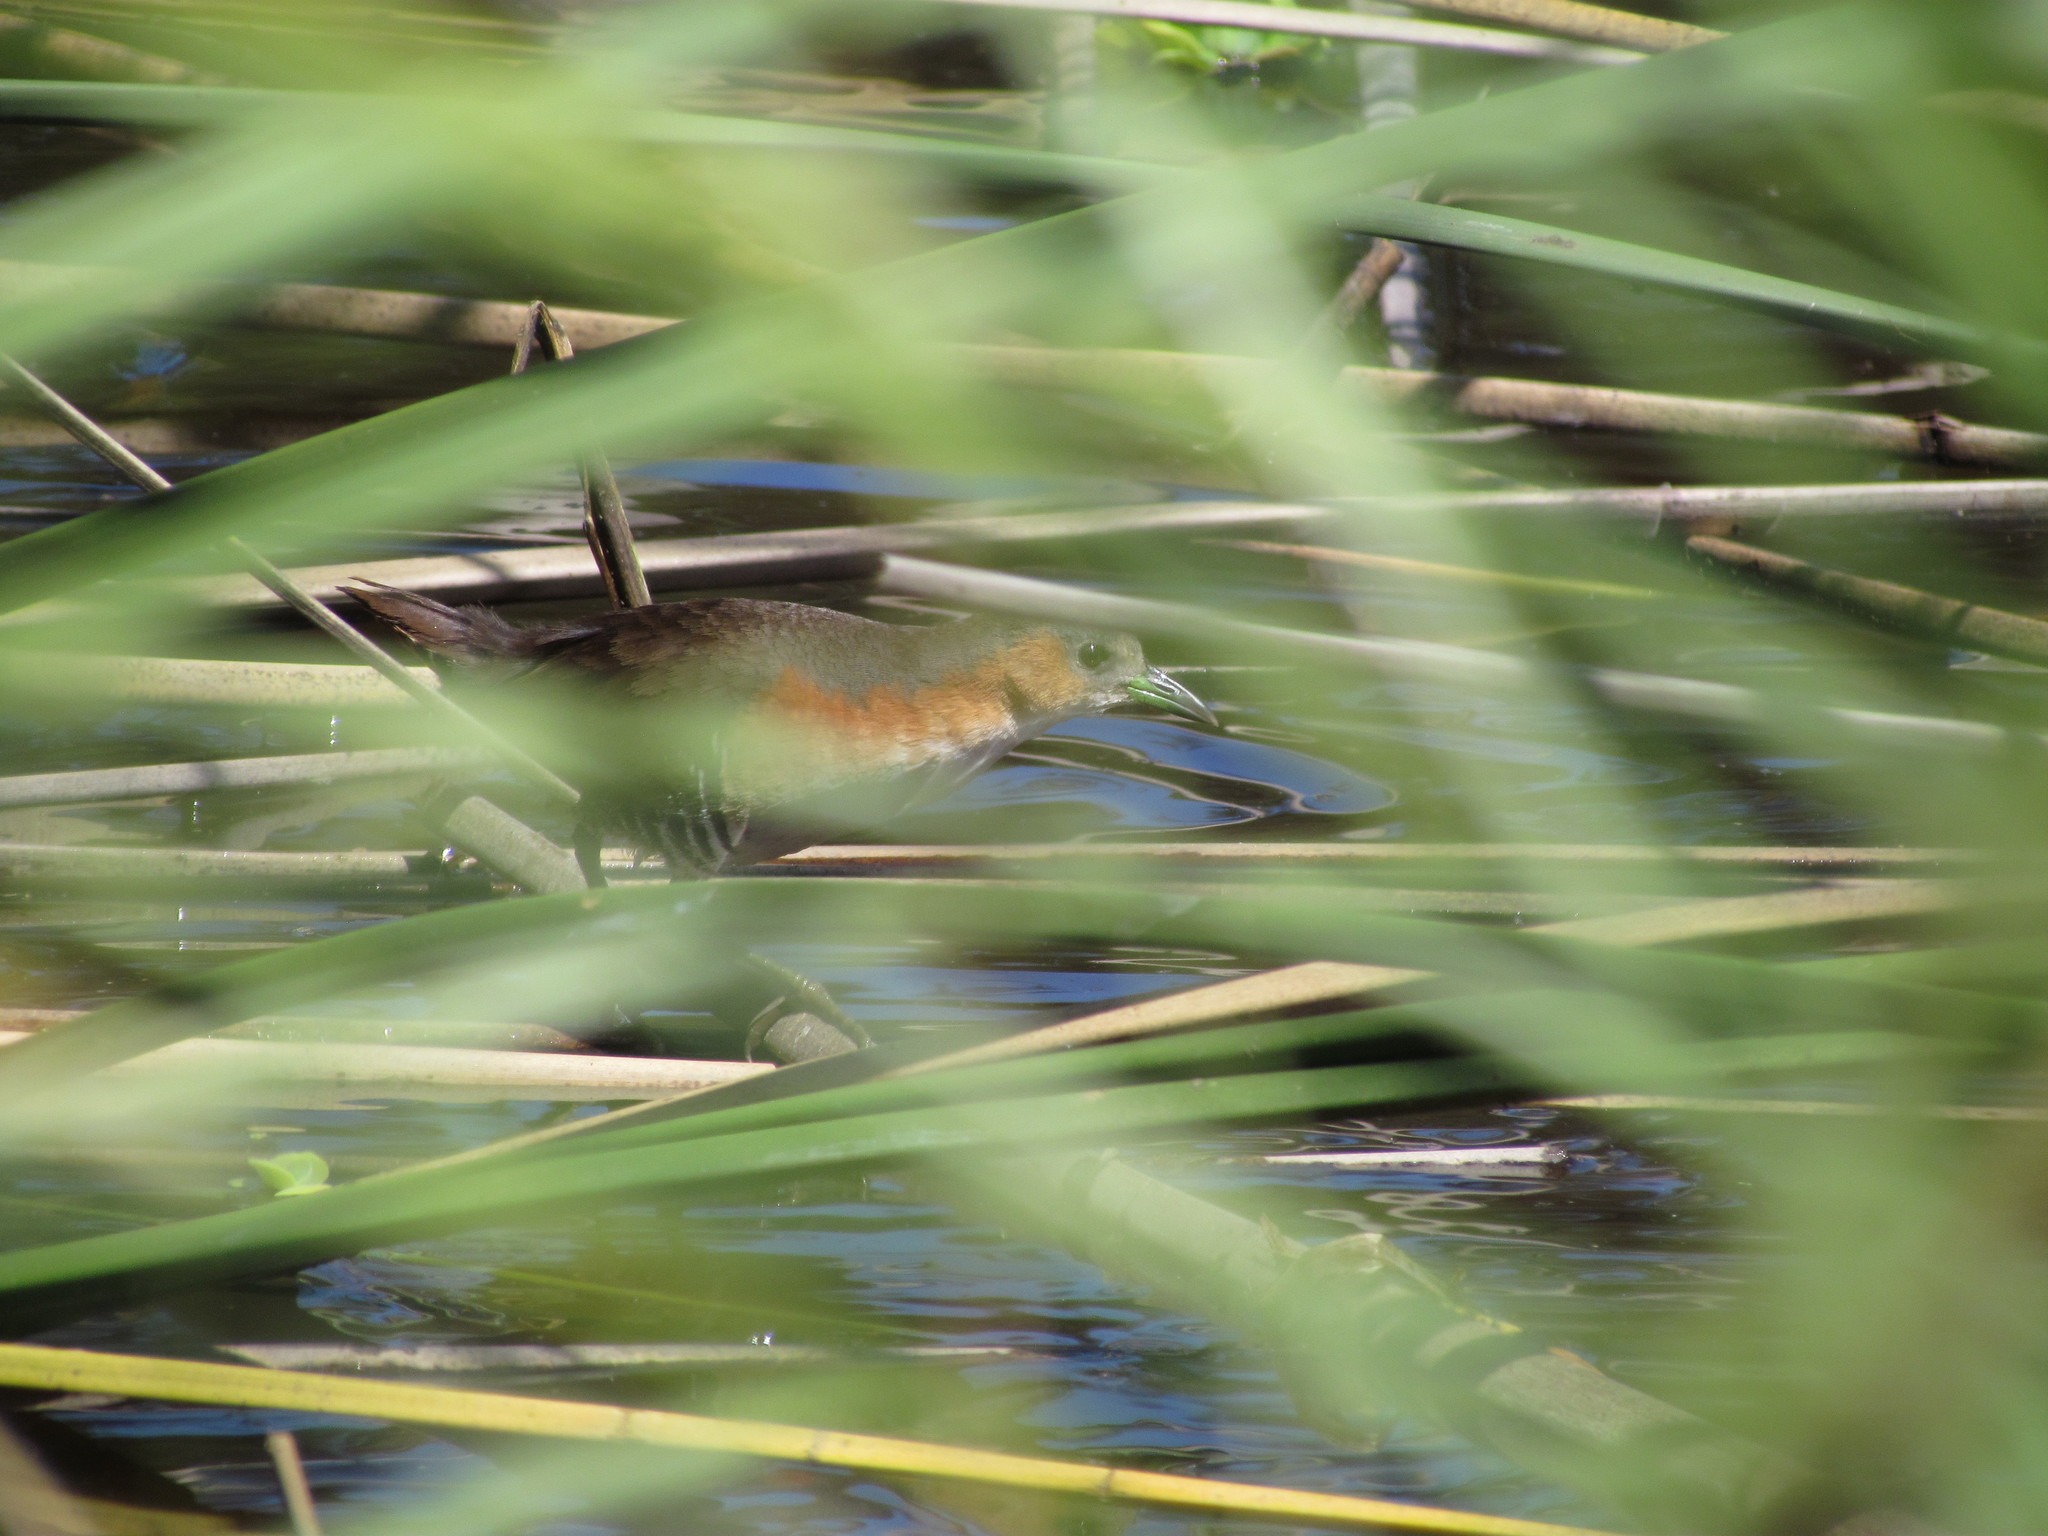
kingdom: Animalia
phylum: Chordata
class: Aves
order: Gruiformes
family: Rallidae
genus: Laterallus
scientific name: Laterallus melanophaius
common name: Rufous-sided crake
